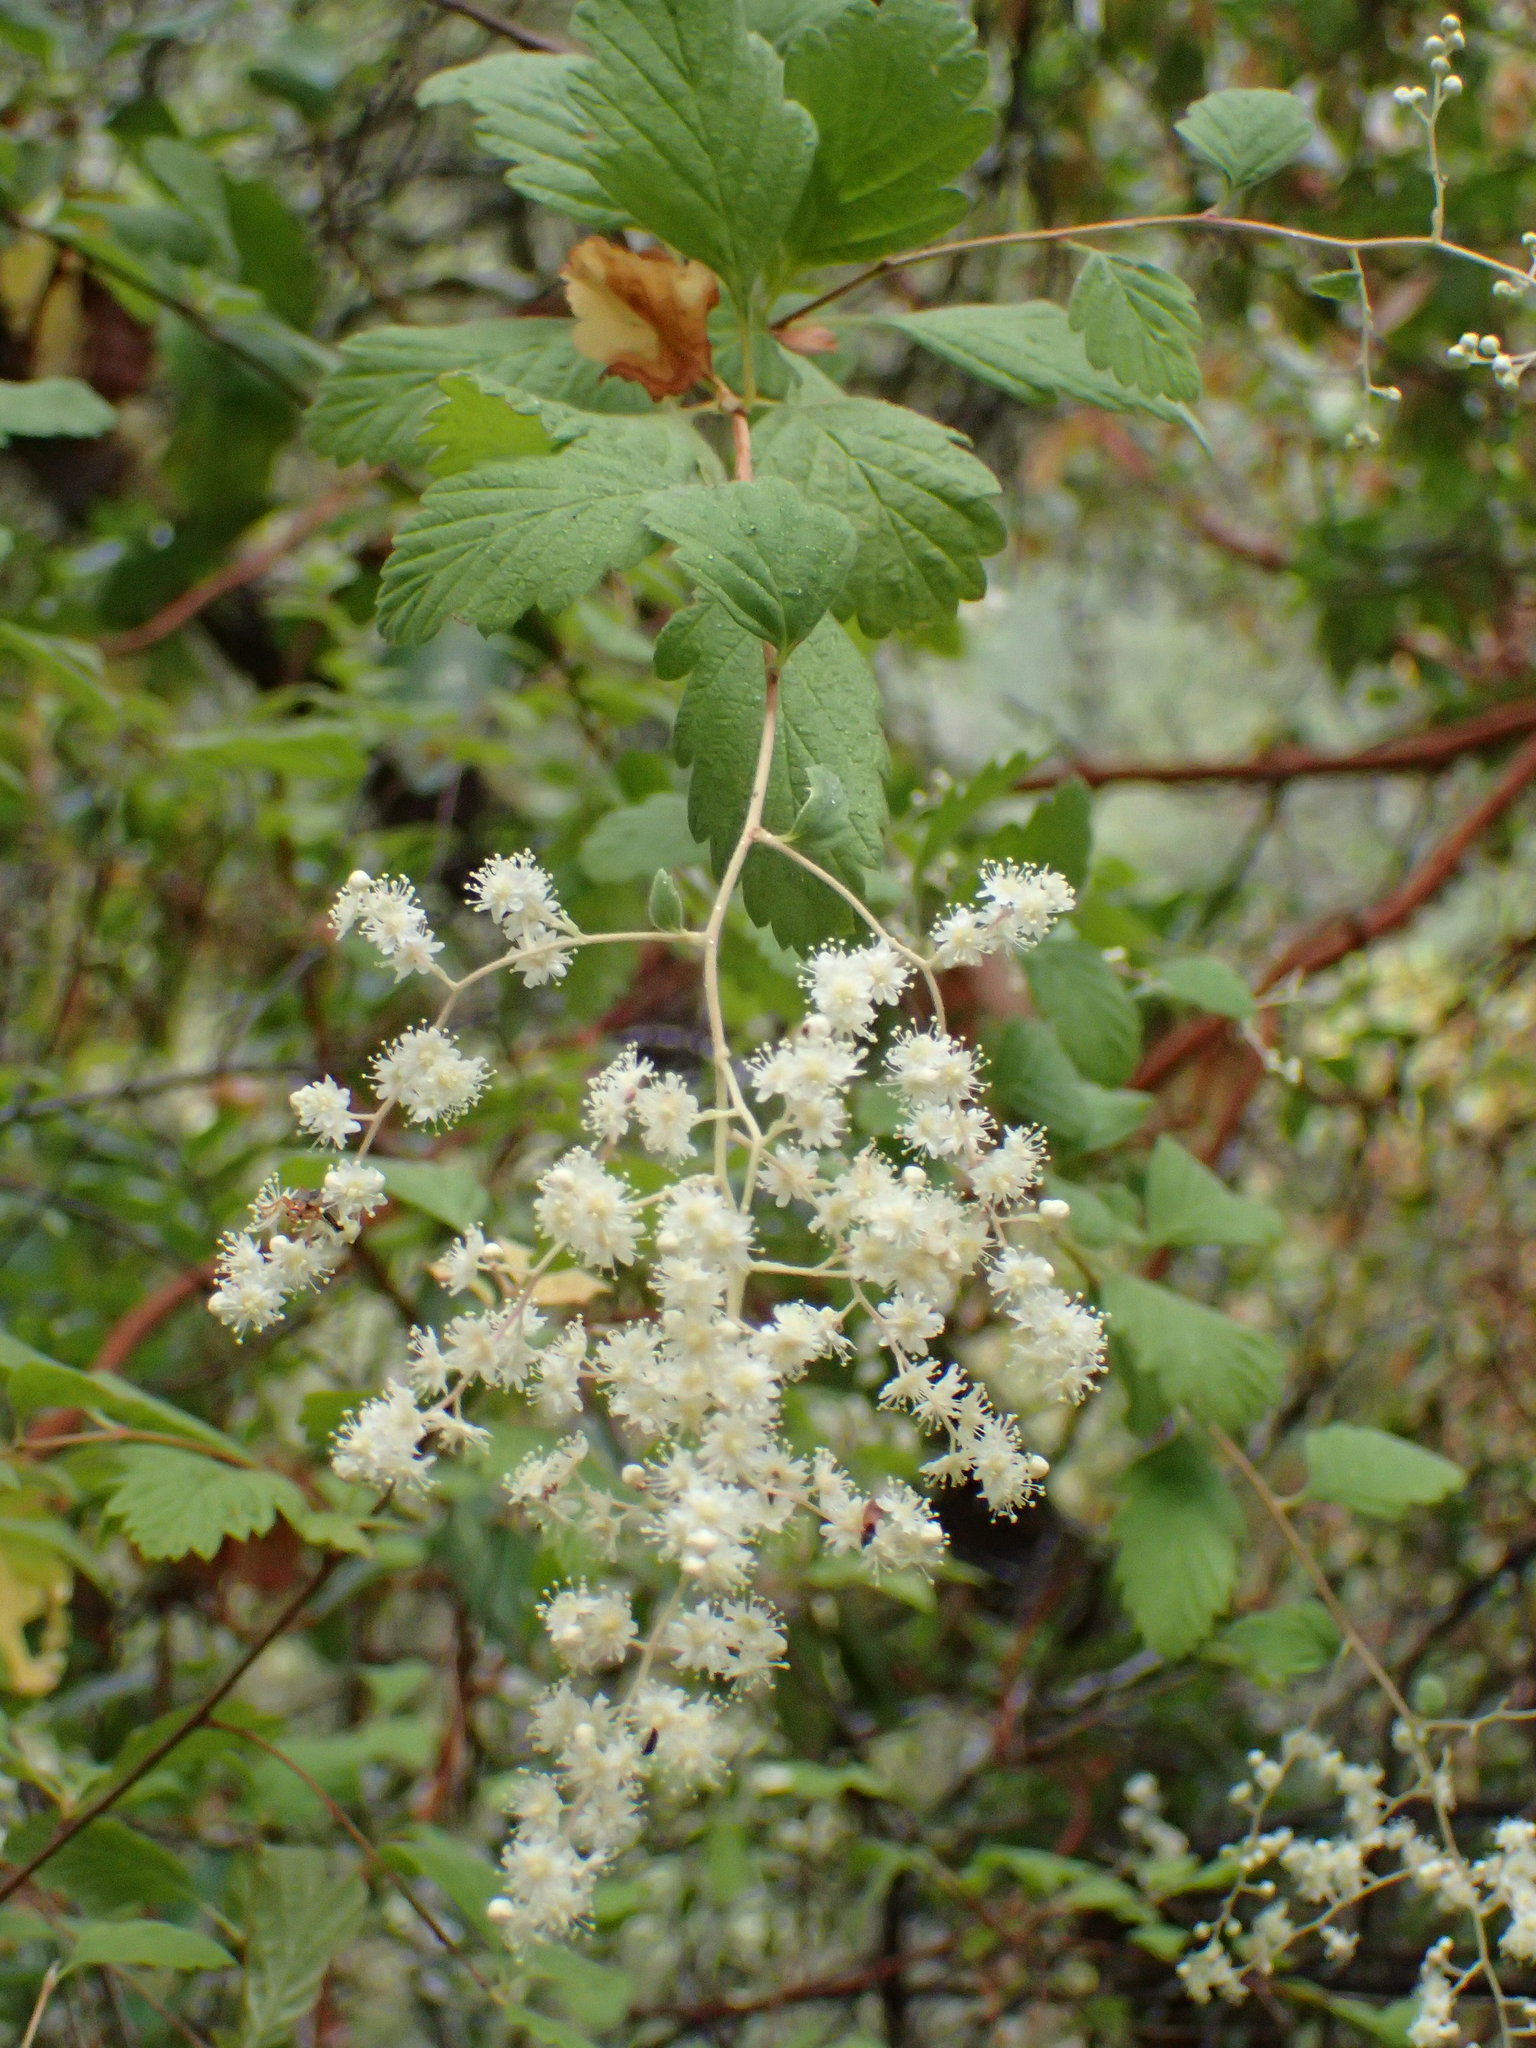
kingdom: Plantae
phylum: Tracheophyta
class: Magnoliopsida
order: Rosales
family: Rosaceae
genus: Holodiscus
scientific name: Holodiscus discolor
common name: Oceanspray
